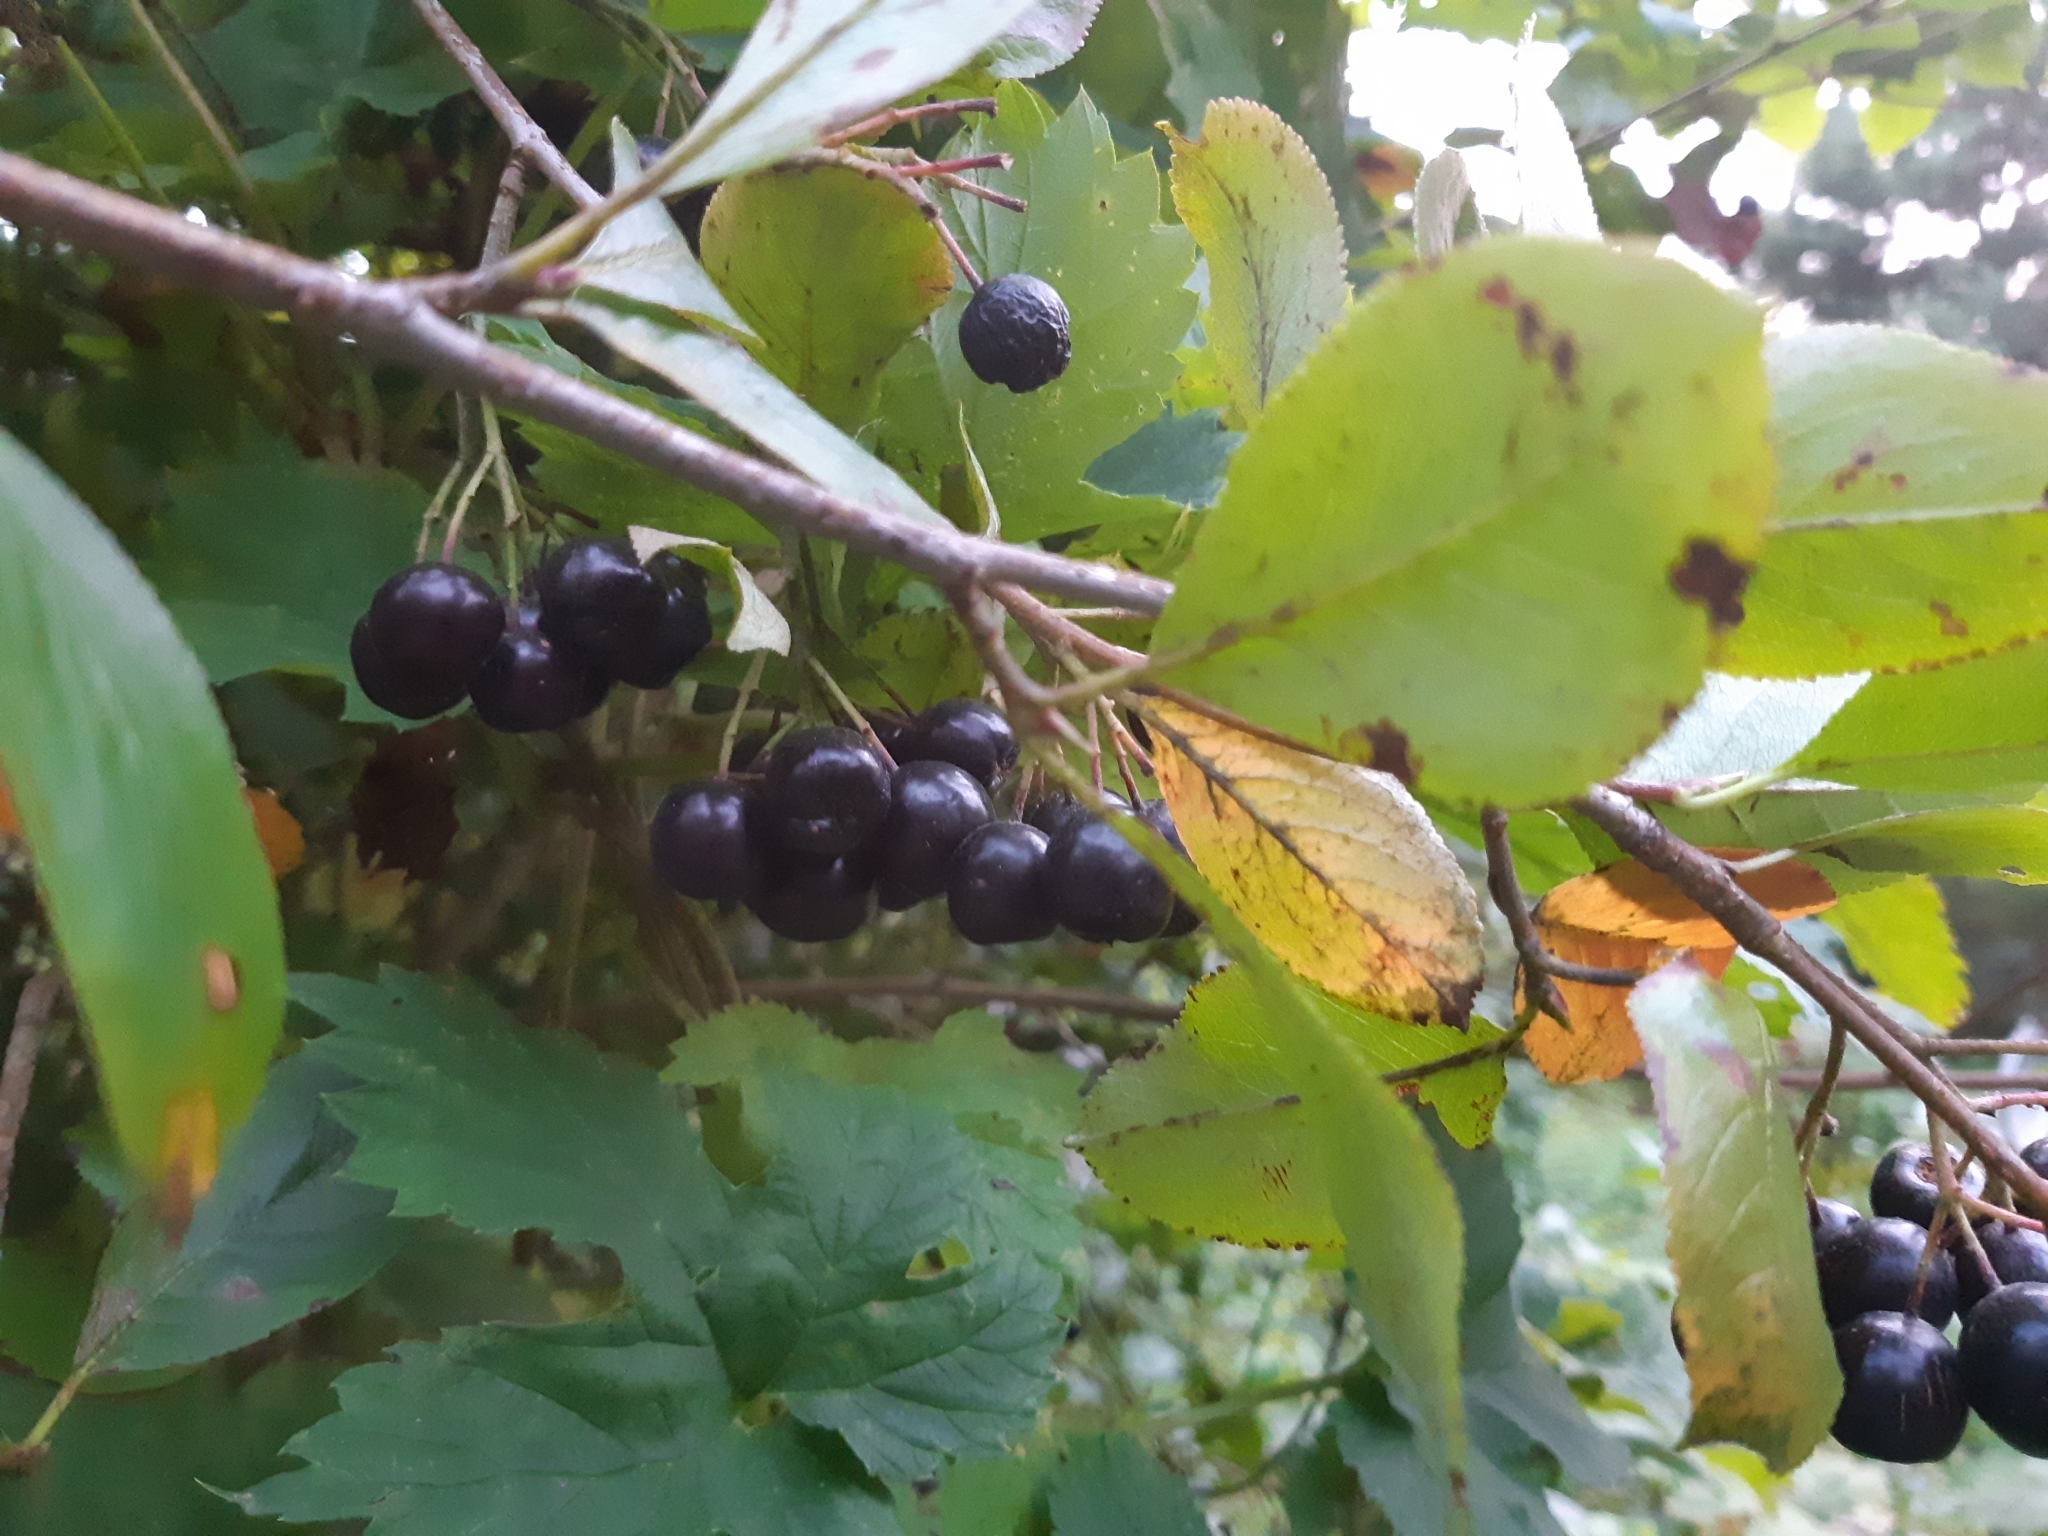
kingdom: Plantae
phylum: Tracheophyta
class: Magnoliopsida
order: Rosales
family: Rosaceae
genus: Sorbaronia
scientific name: Sorbaronia arsenii
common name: Arsène's mountain-ash
